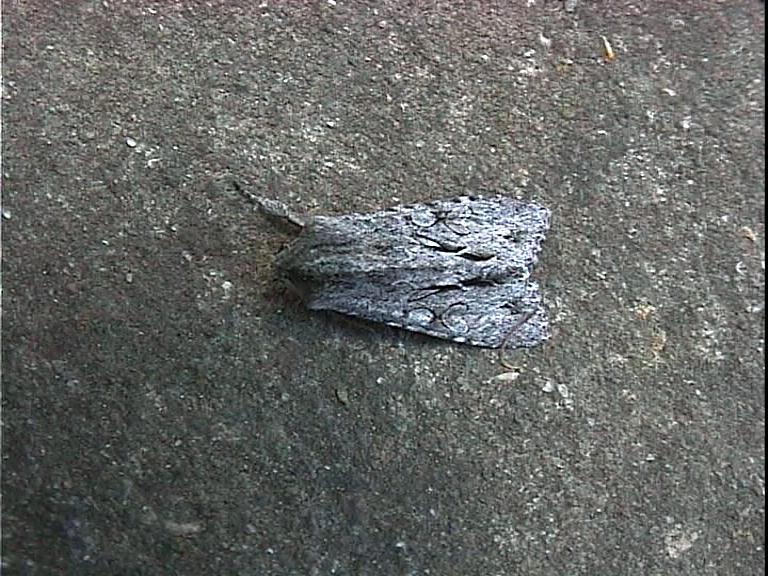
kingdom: Animalia
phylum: Arthropoda
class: Insecta
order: Lepidoptera
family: Noctuidae
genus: Ichneutica
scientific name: Ichneutica
